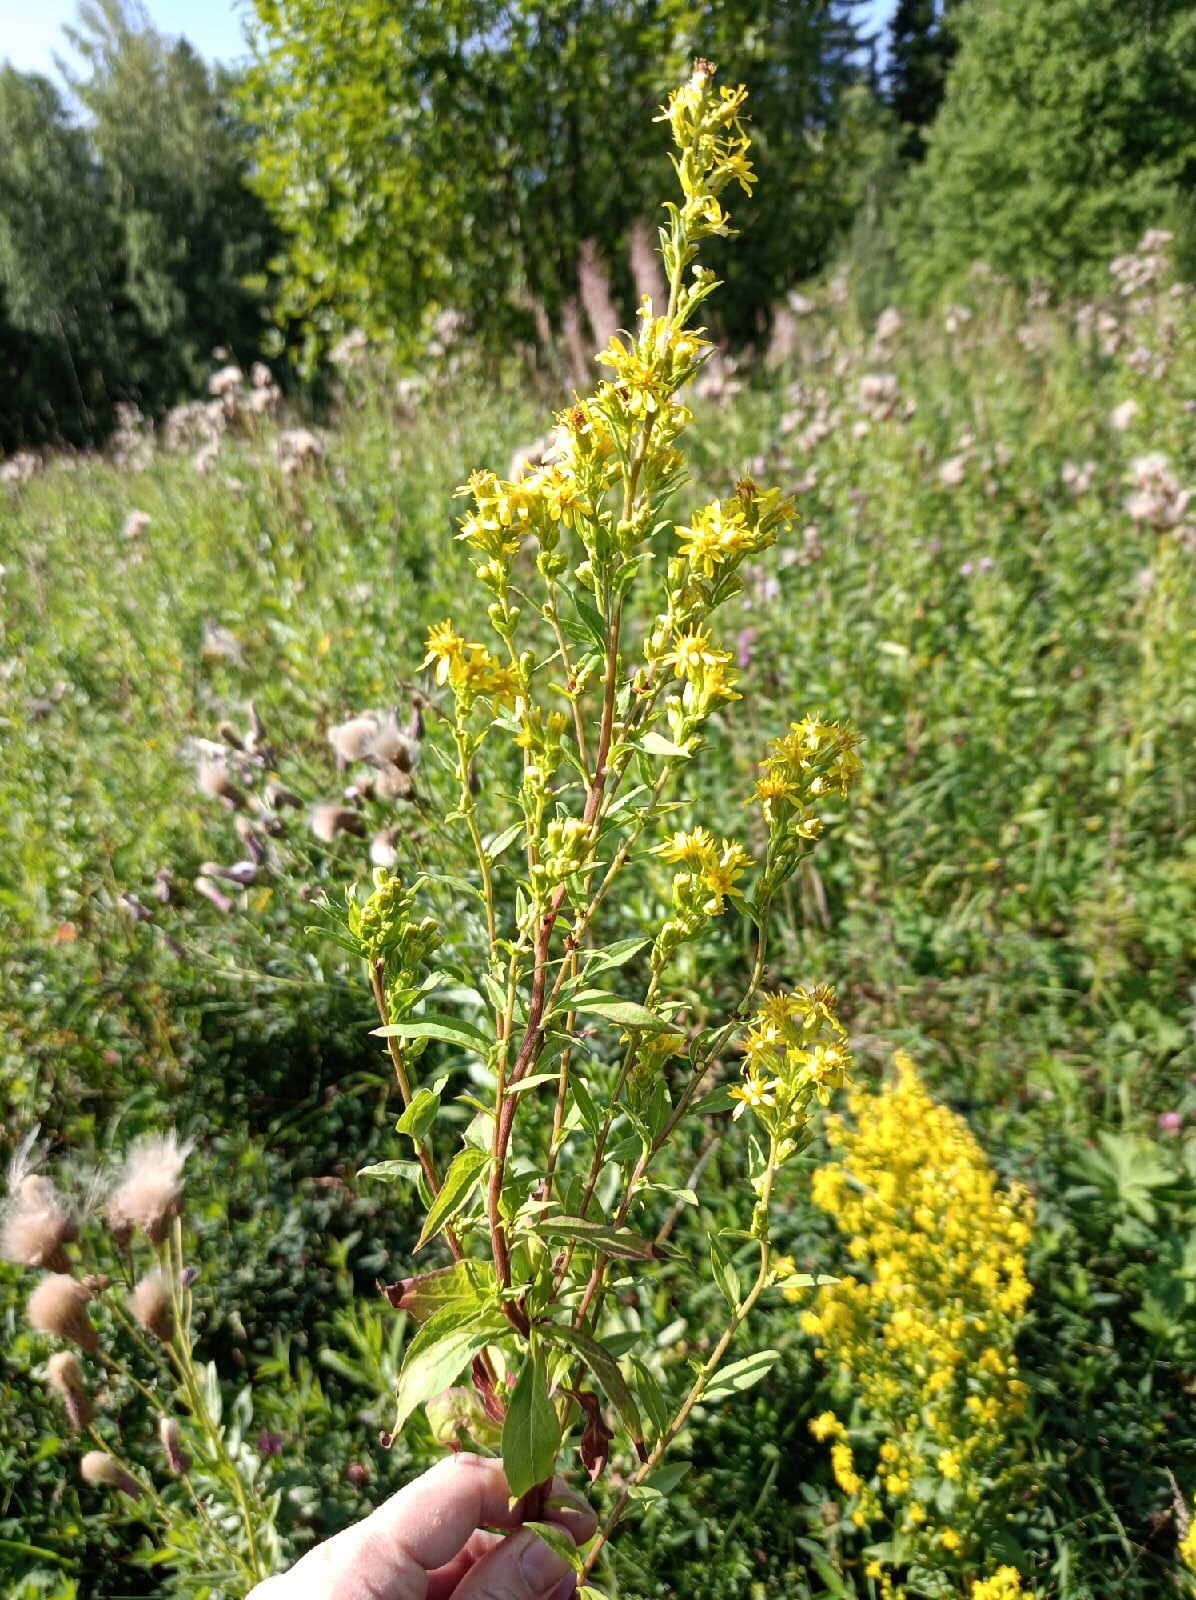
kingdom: Plantae
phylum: Tracheophyta
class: Magnoliopsida
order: Asterales
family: Asteraceae
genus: Solidago
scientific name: Solidago virgaurea
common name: Goldenrod
